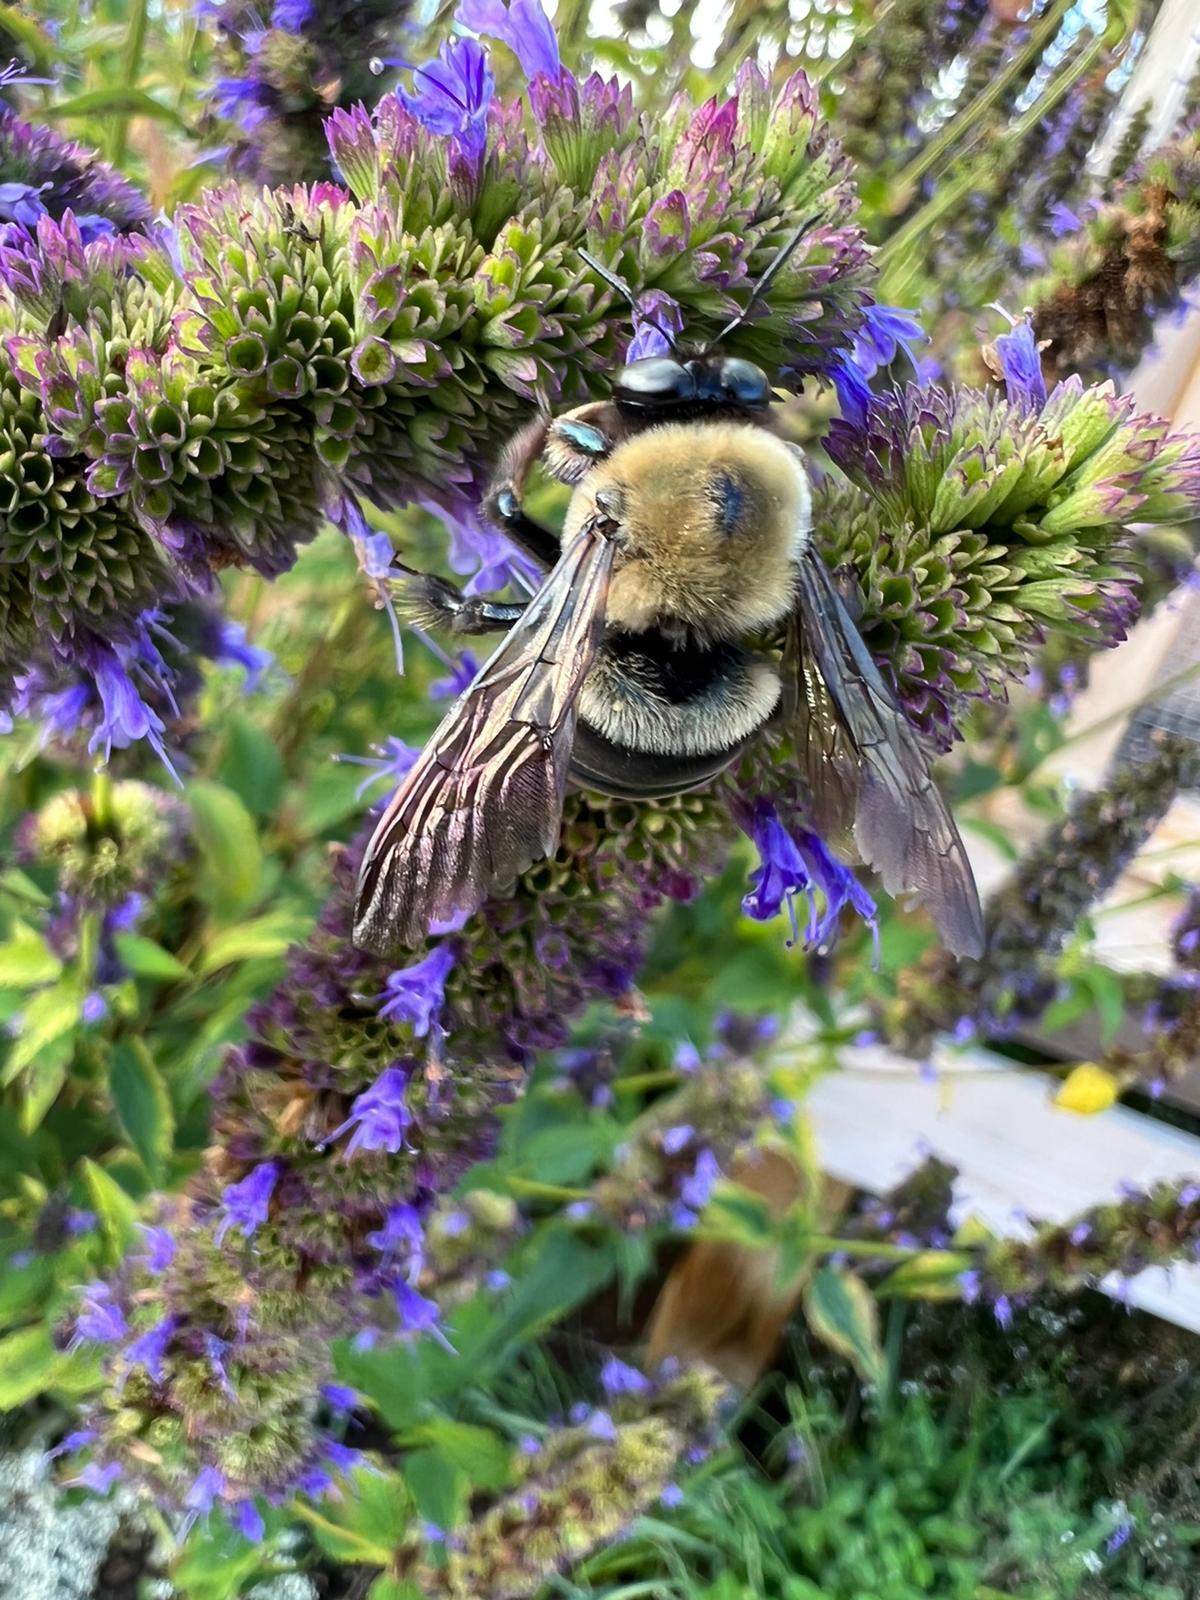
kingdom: Animalia
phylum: Arthropoda
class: Insecta
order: Hymenoptera
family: Apidae
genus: Xylocopa
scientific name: Xylocopa virginica
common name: Carpenter bee
